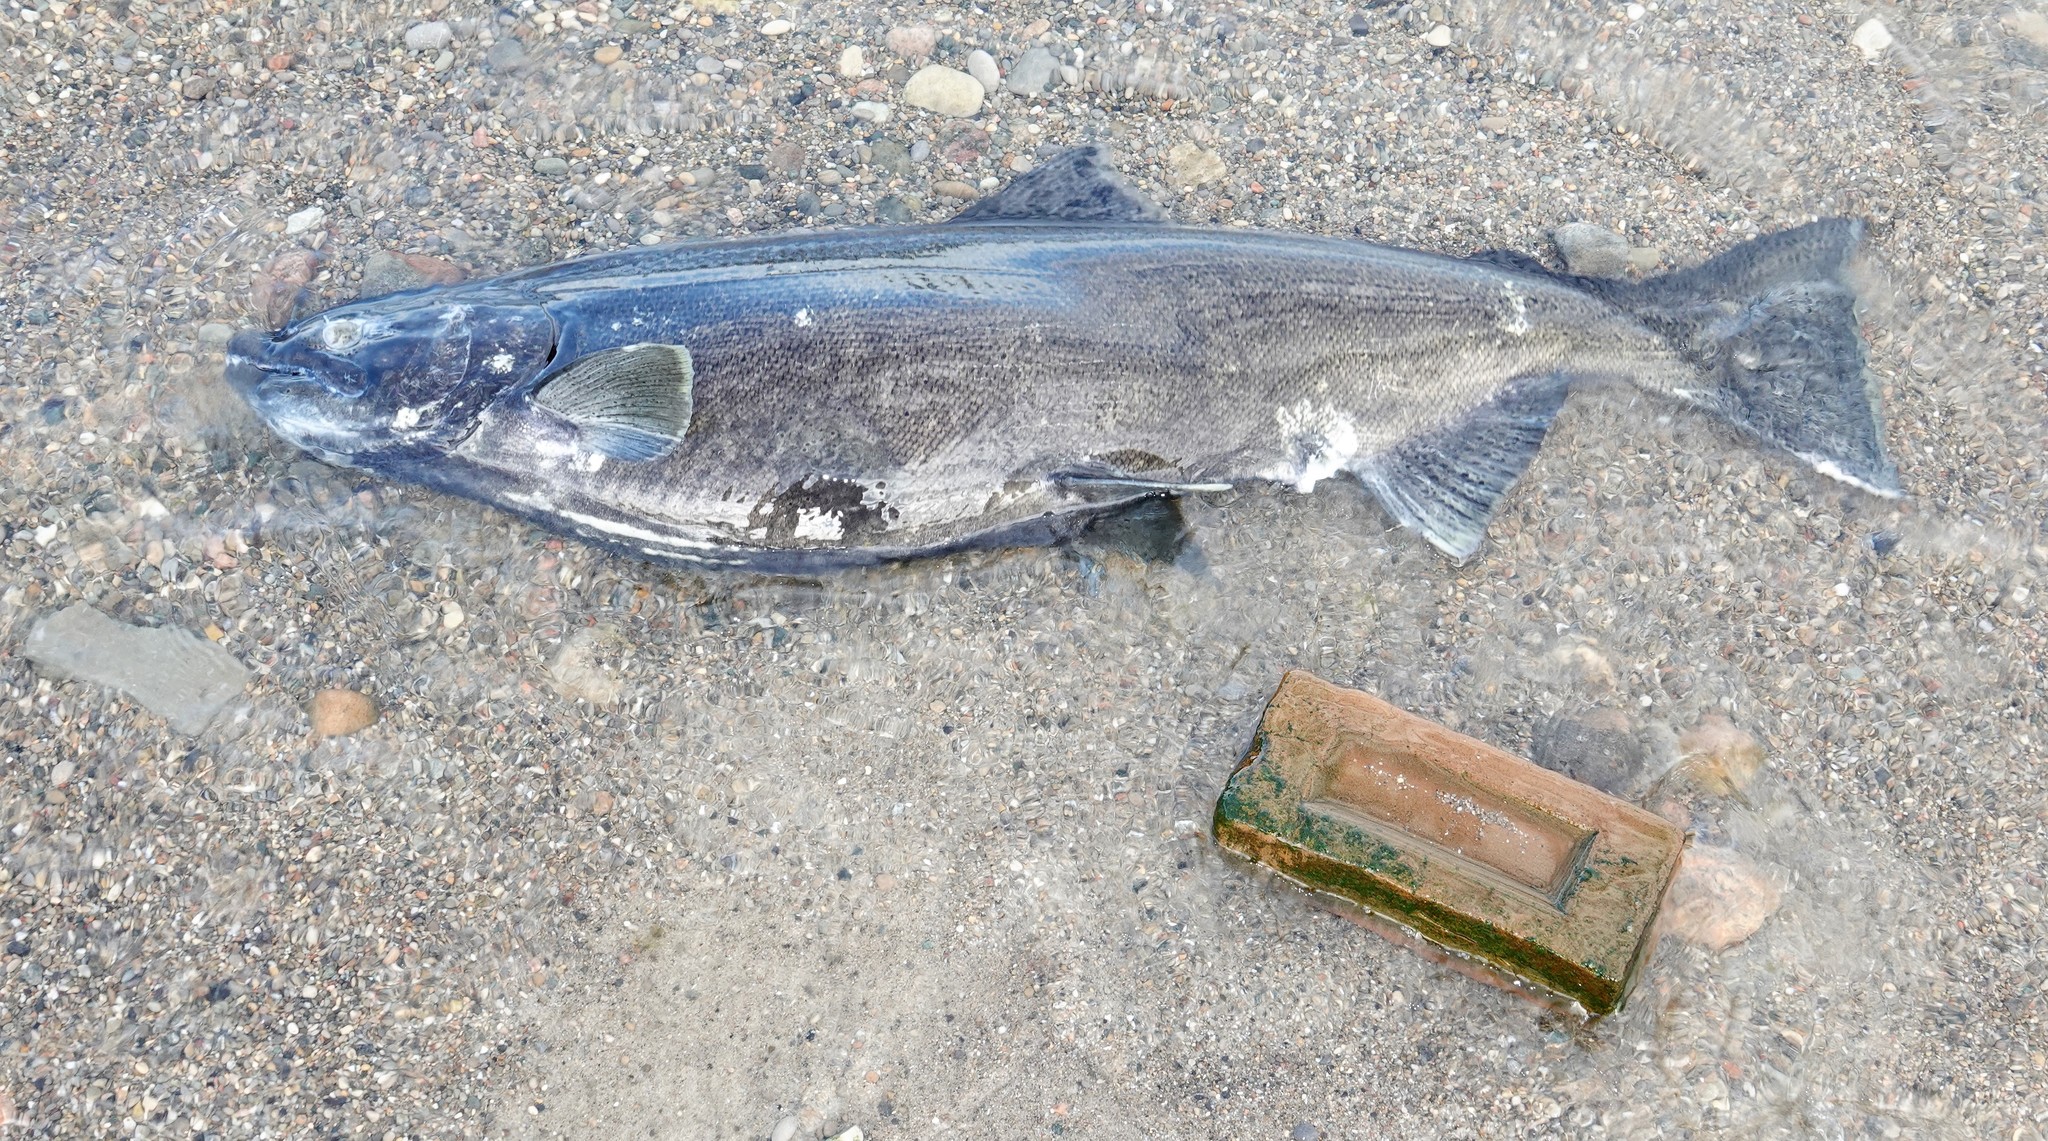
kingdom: Animalia
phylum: Chordata
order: Salmoniformes
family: Salmonidae
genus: Oncorhynchus
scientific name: Oncorhynchus tshawytscha
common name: Chinook salmon
